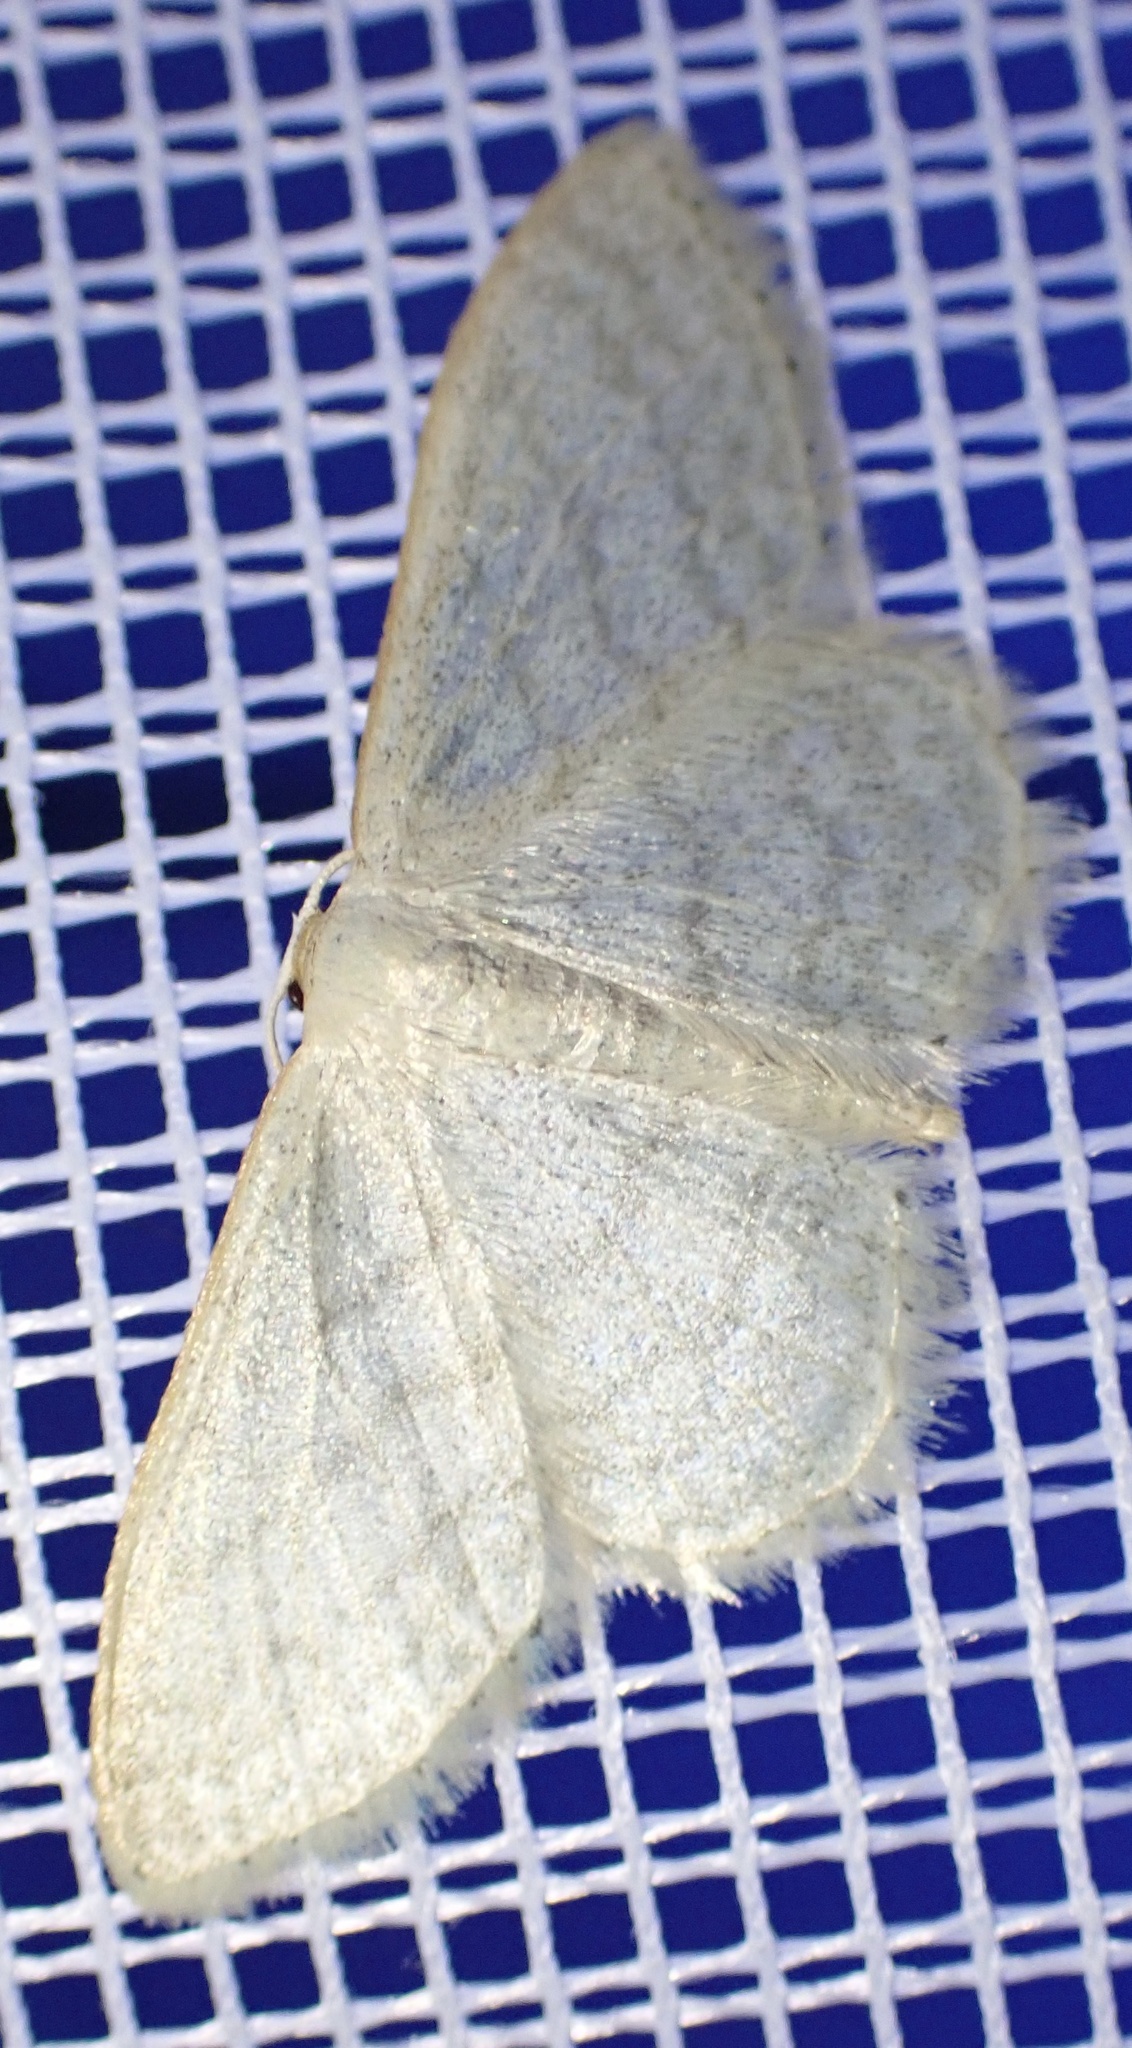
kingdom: Animalia
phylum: Arthropoda
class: Insecta
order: Lepidoptera
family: Geometridae
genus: Idaea
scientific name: Idaea subsericeata
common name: Satin wave
